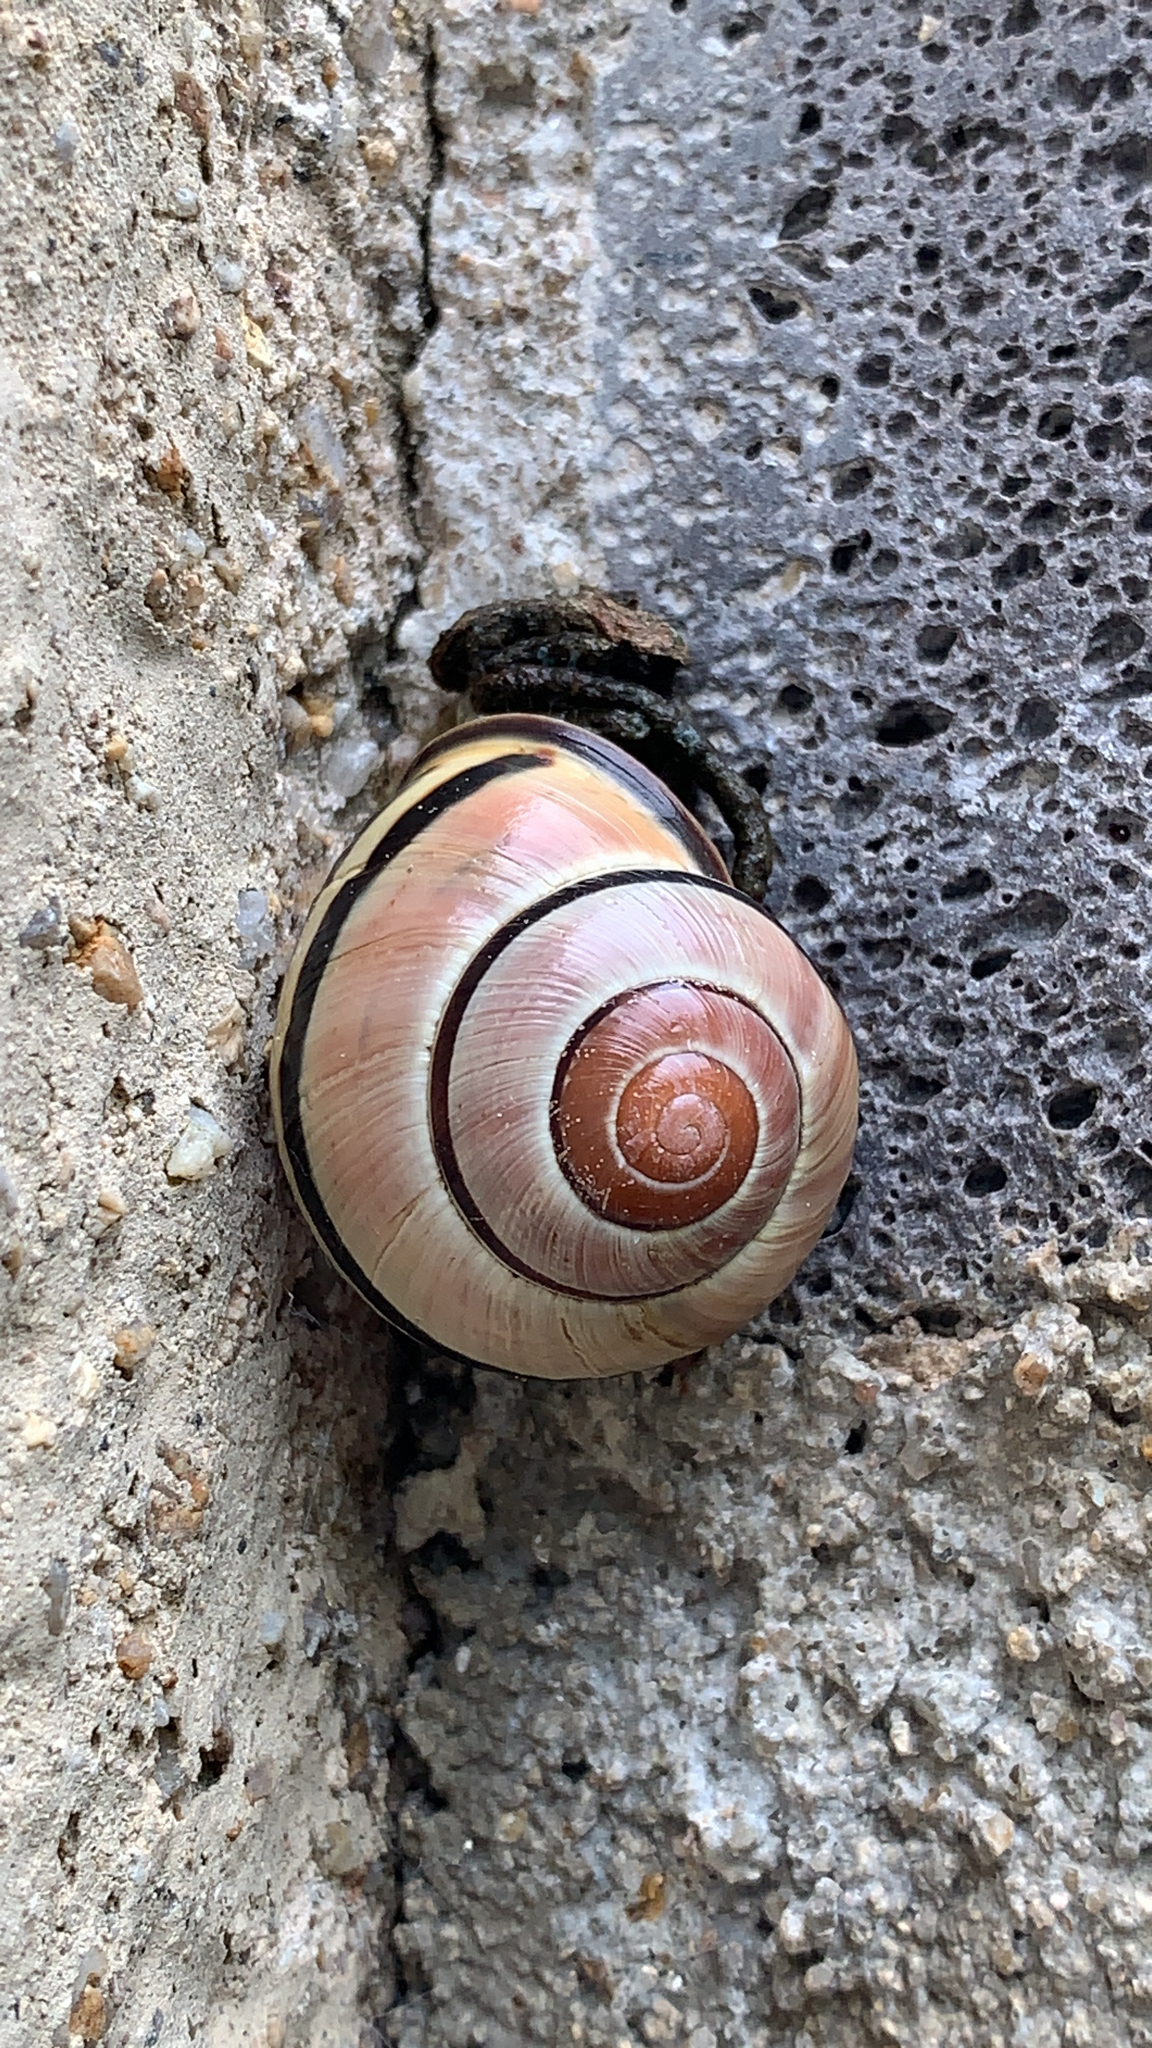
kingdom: Animalia
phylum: Mollusca
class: Gastropoda
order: Stylommatophora
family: Helicidae
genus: Cepaea
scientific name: Cepaea nemoralis
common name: Grovesnail
